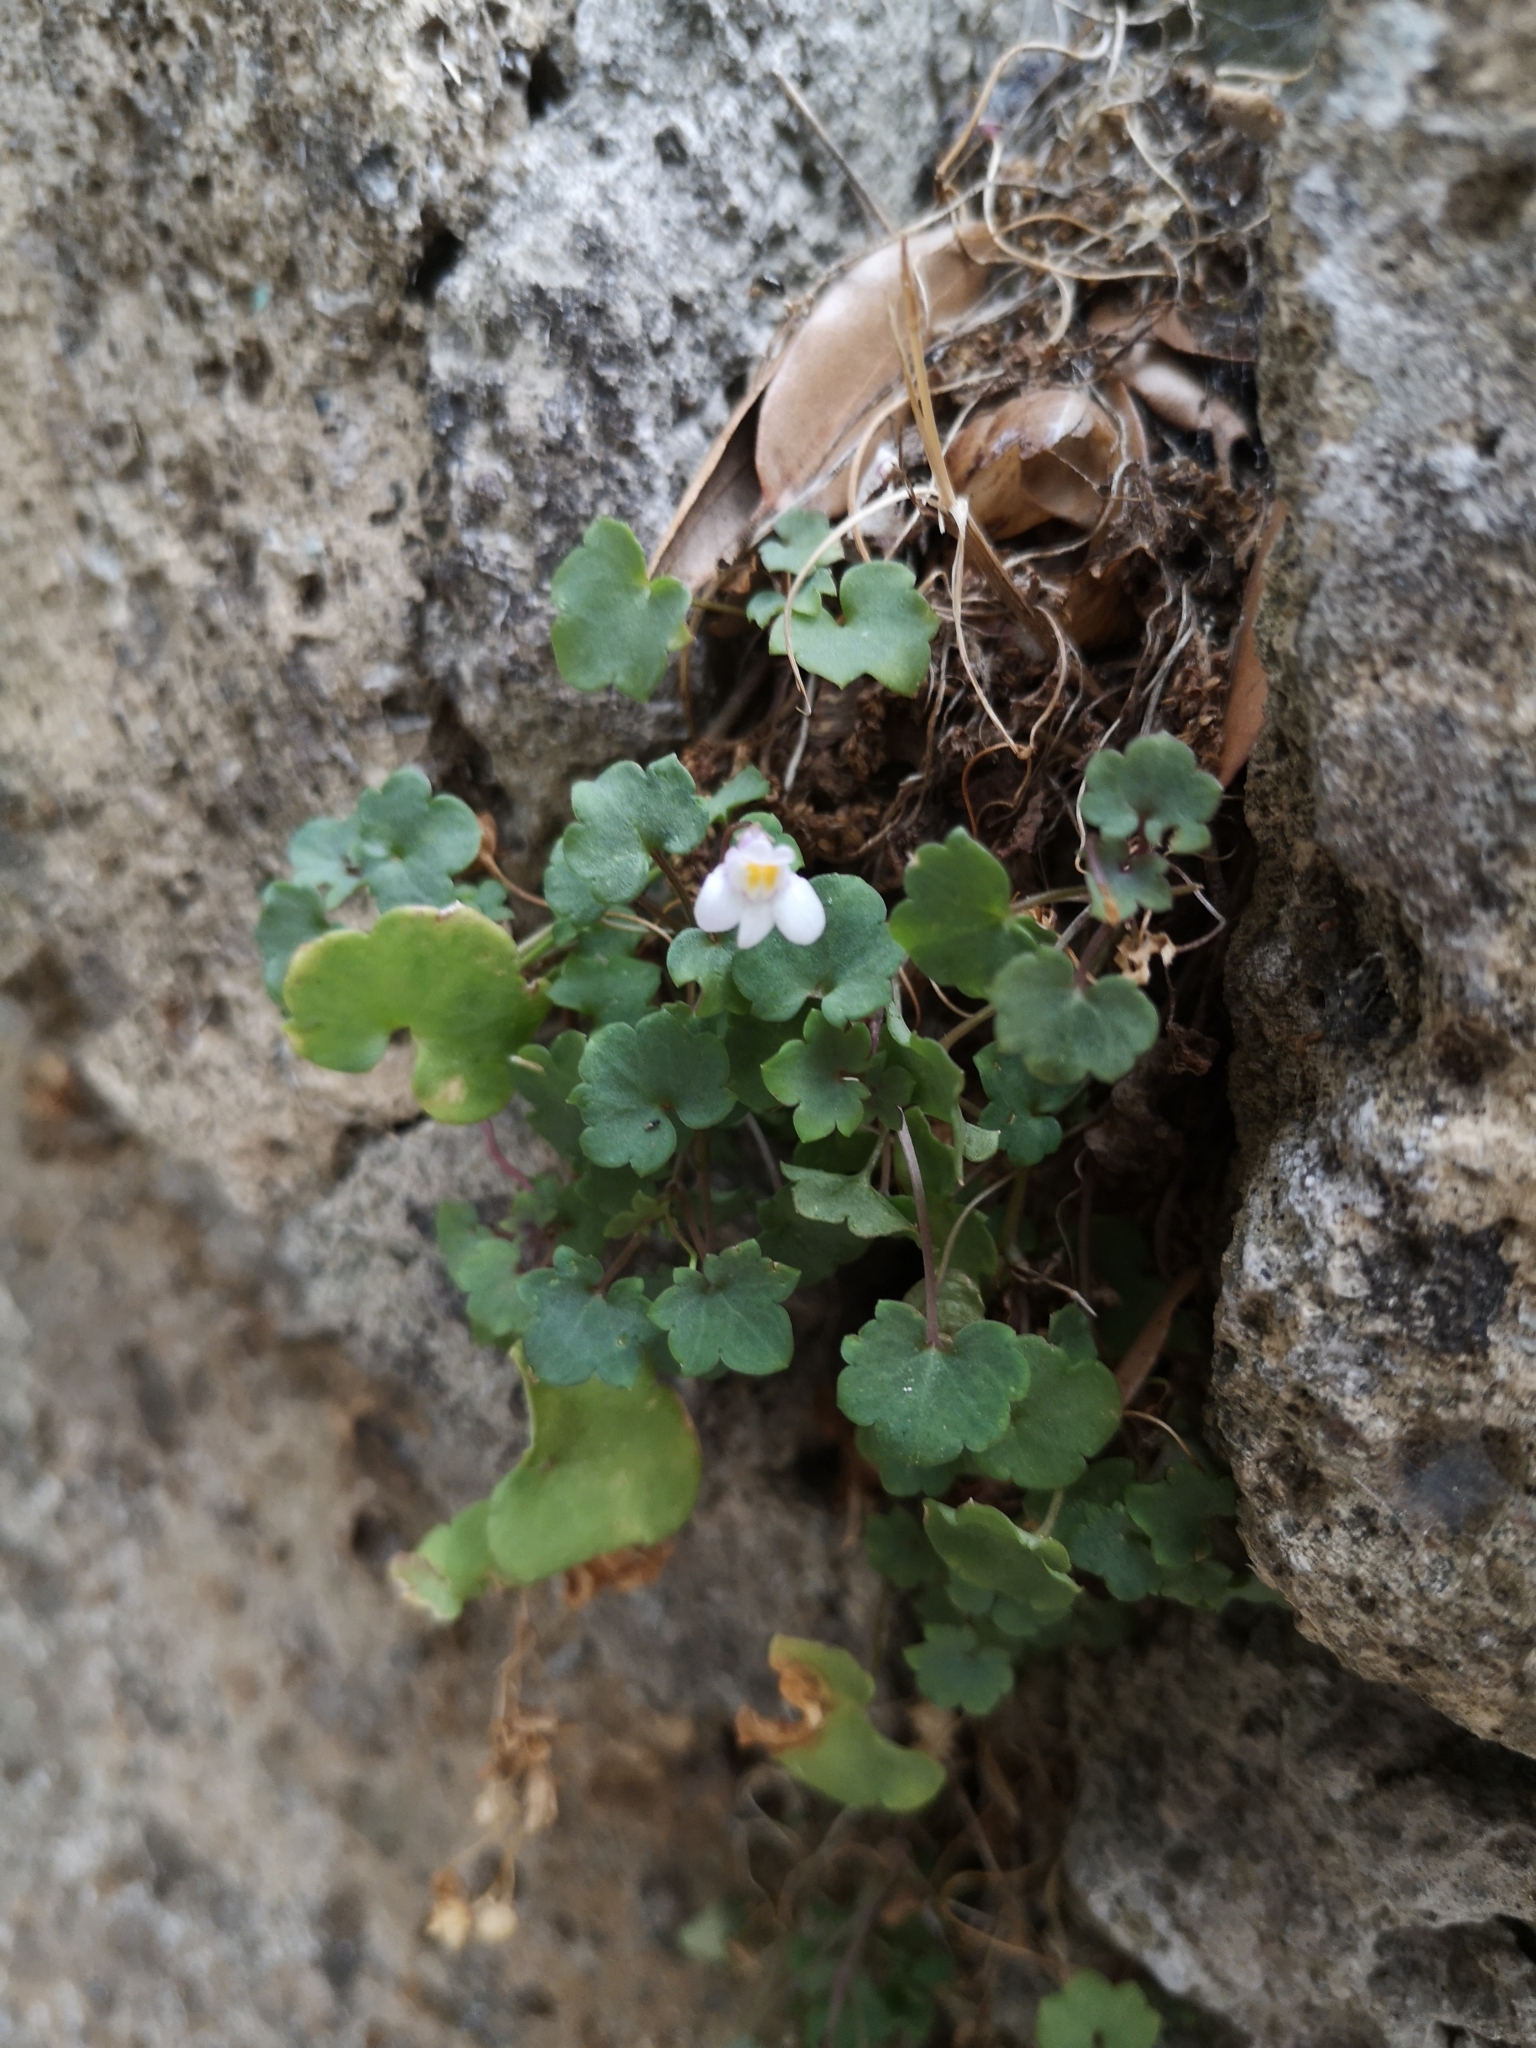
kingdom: Plantae
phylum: Tracheophyta
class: Magnoliopsida
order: Lamiales
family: Plantaginaceae
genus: Cymbalaria
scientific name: Cymbalaria muralis
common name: Ivy-leaved toadflax
